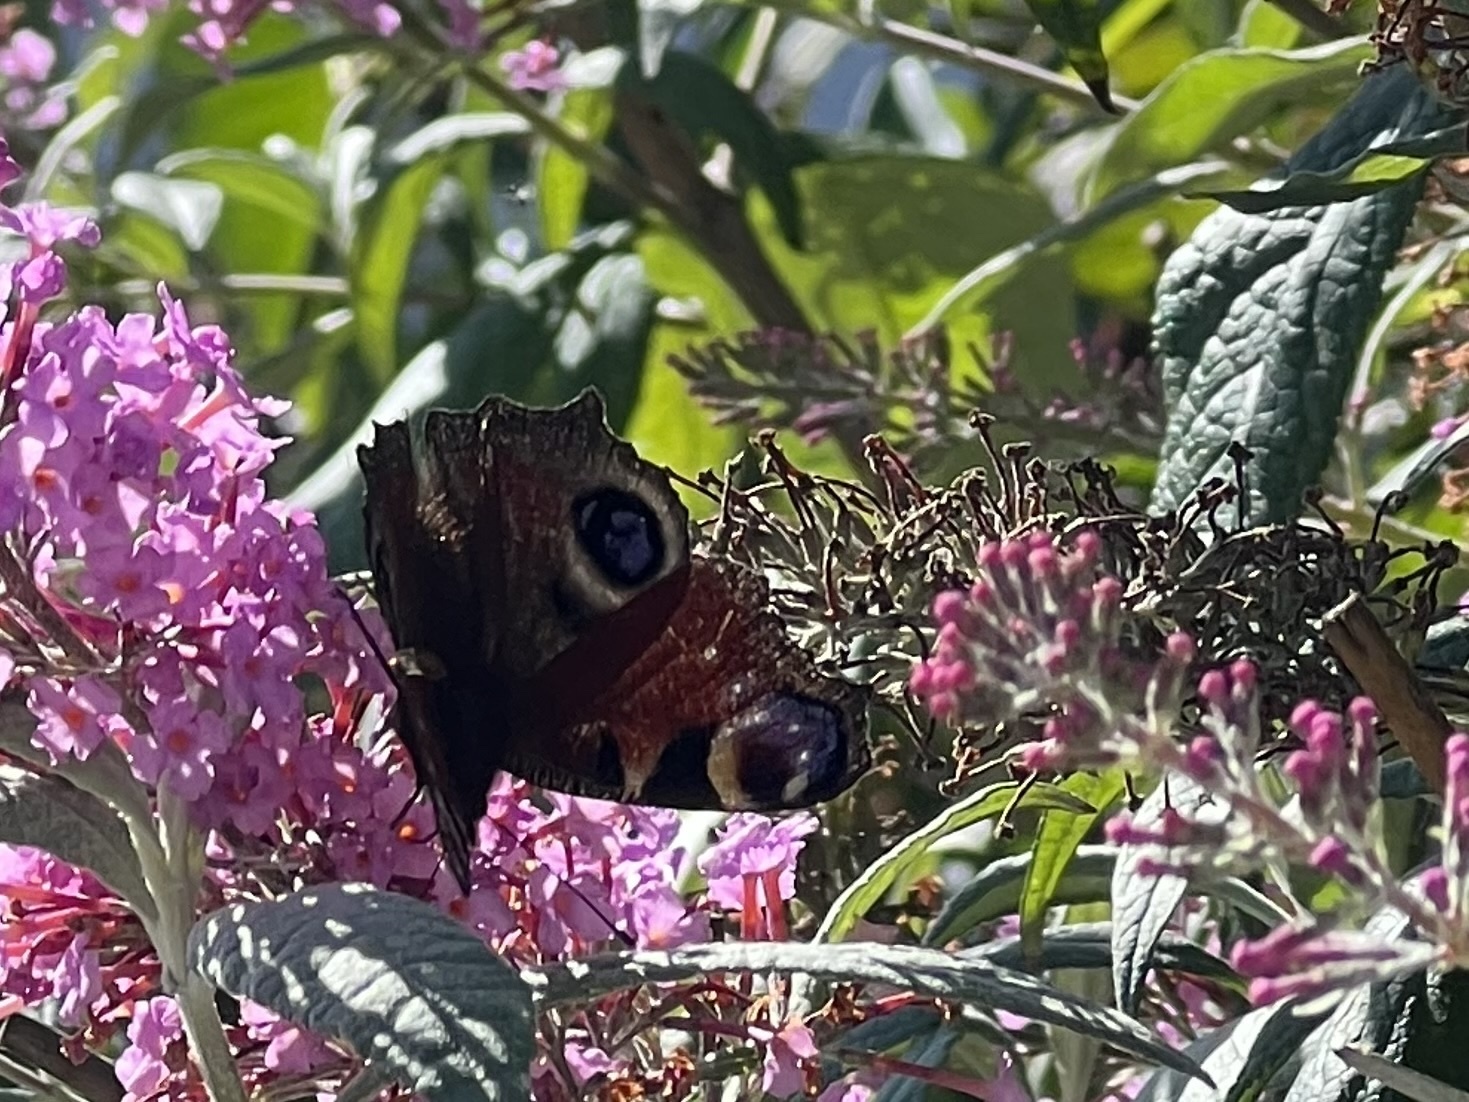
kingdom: Animalia
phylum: Arthropoda
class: Insecta
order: Lepidoptera
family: Nymphalidae
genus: Aglais
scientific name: Aglais io
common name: Peacock
